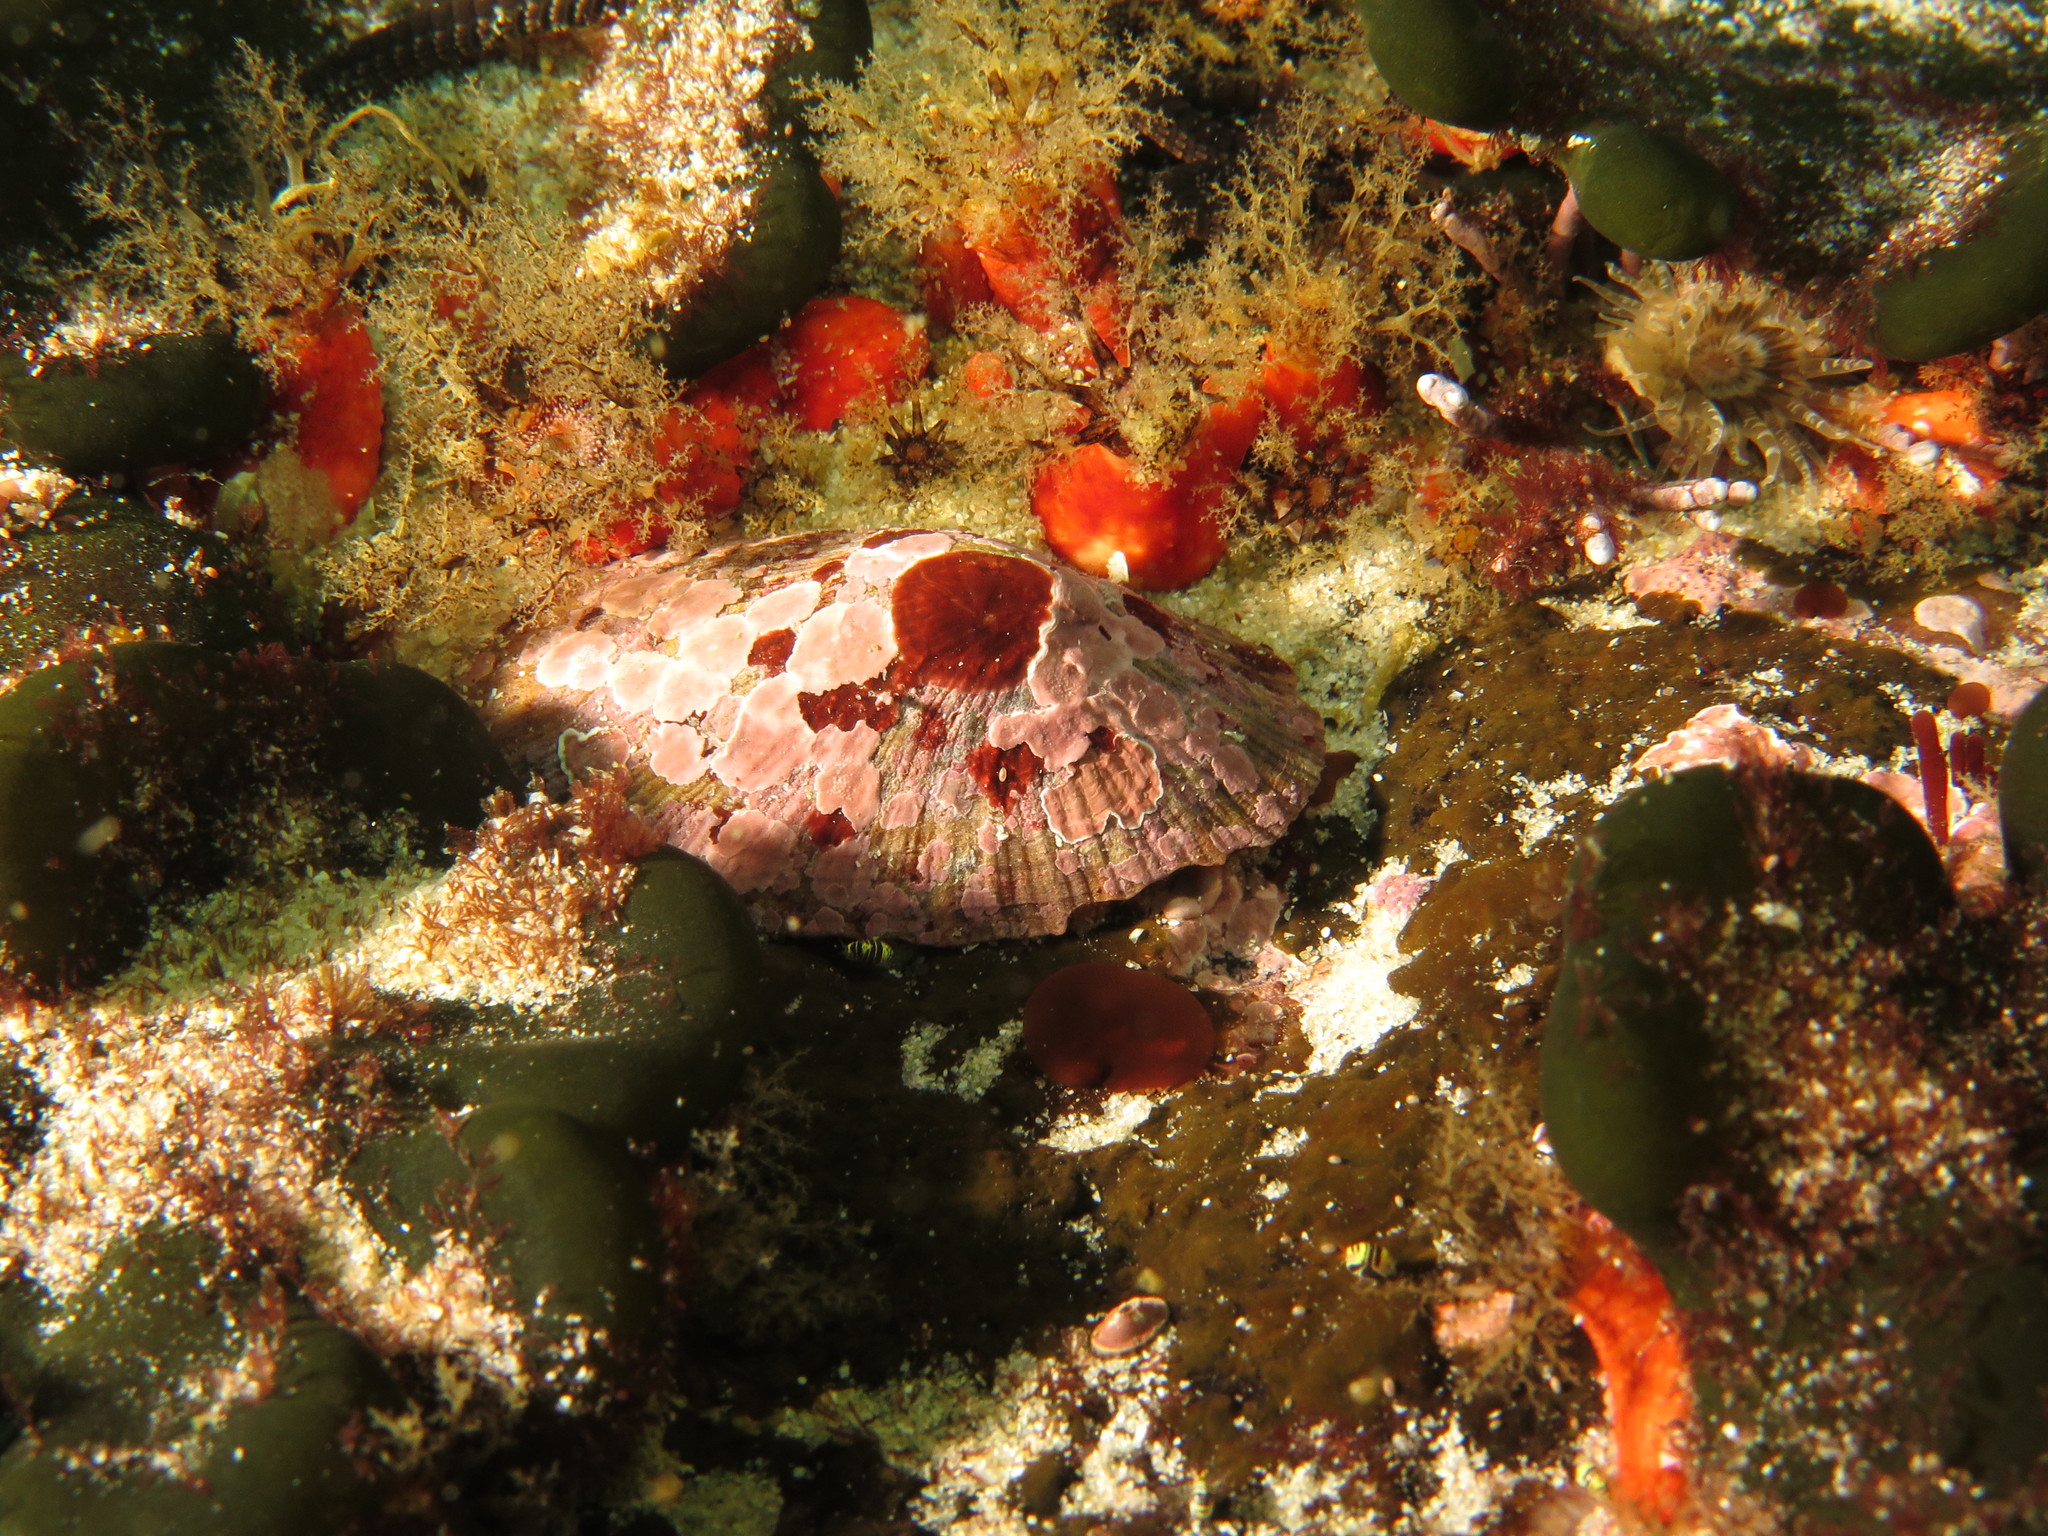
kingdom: Animalia
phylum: Mollusca
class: Gastropoda
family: Patellidae
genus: Scutellastra
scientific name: Scutellastra tabularis
